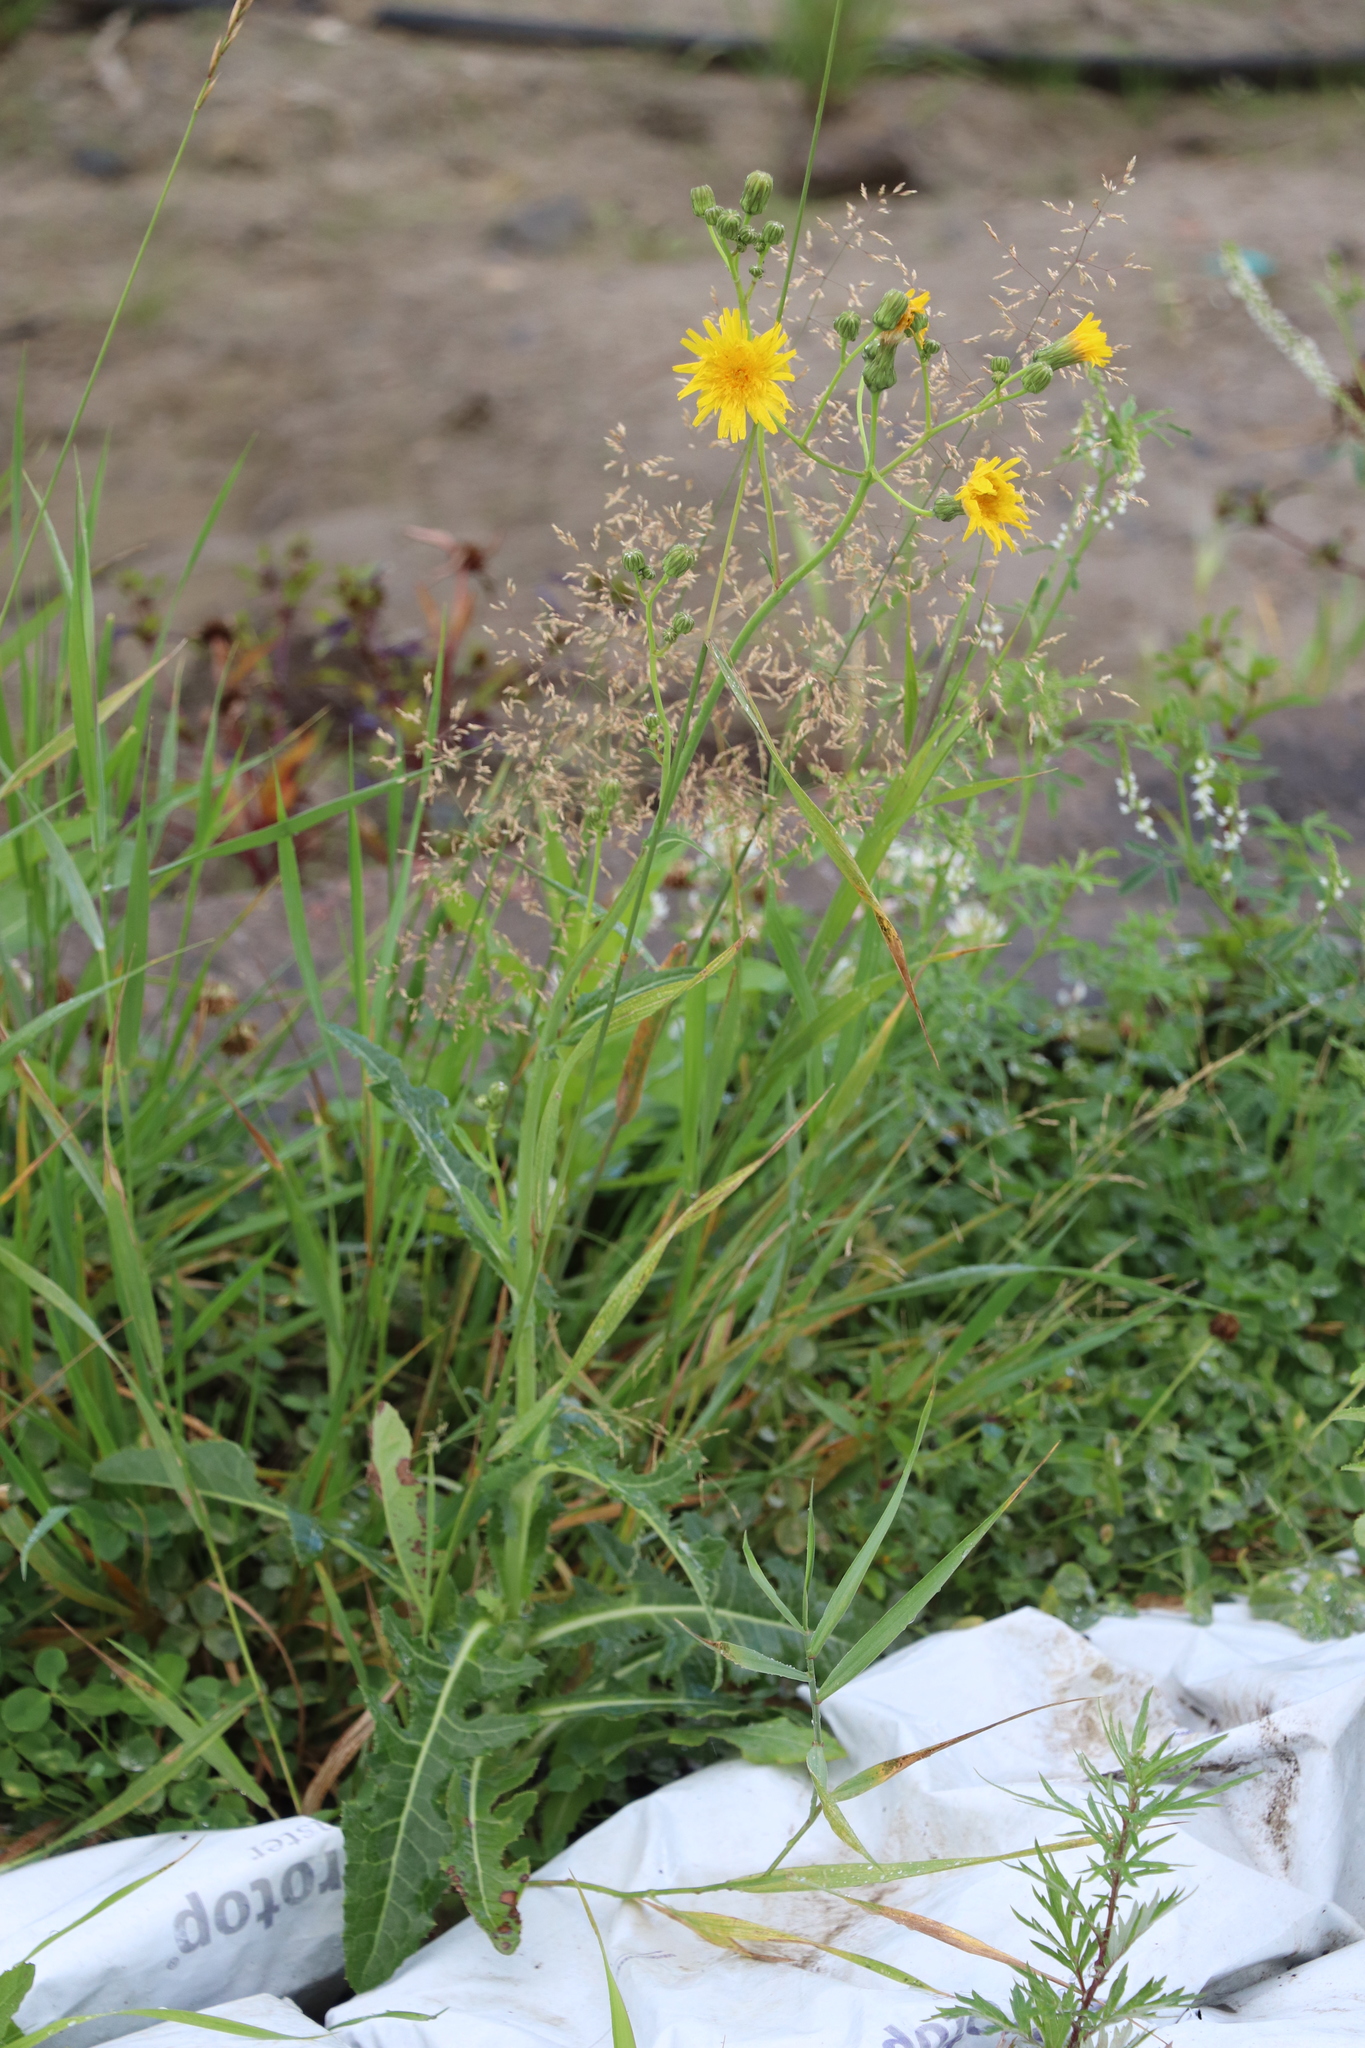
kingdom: Plantae
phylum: Tracheophyta
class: Magnoliopsida
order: Asterales
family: Asteraceae
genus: Sonchus
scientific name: Sonchus arvensis
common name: Perennial sow-thistle
